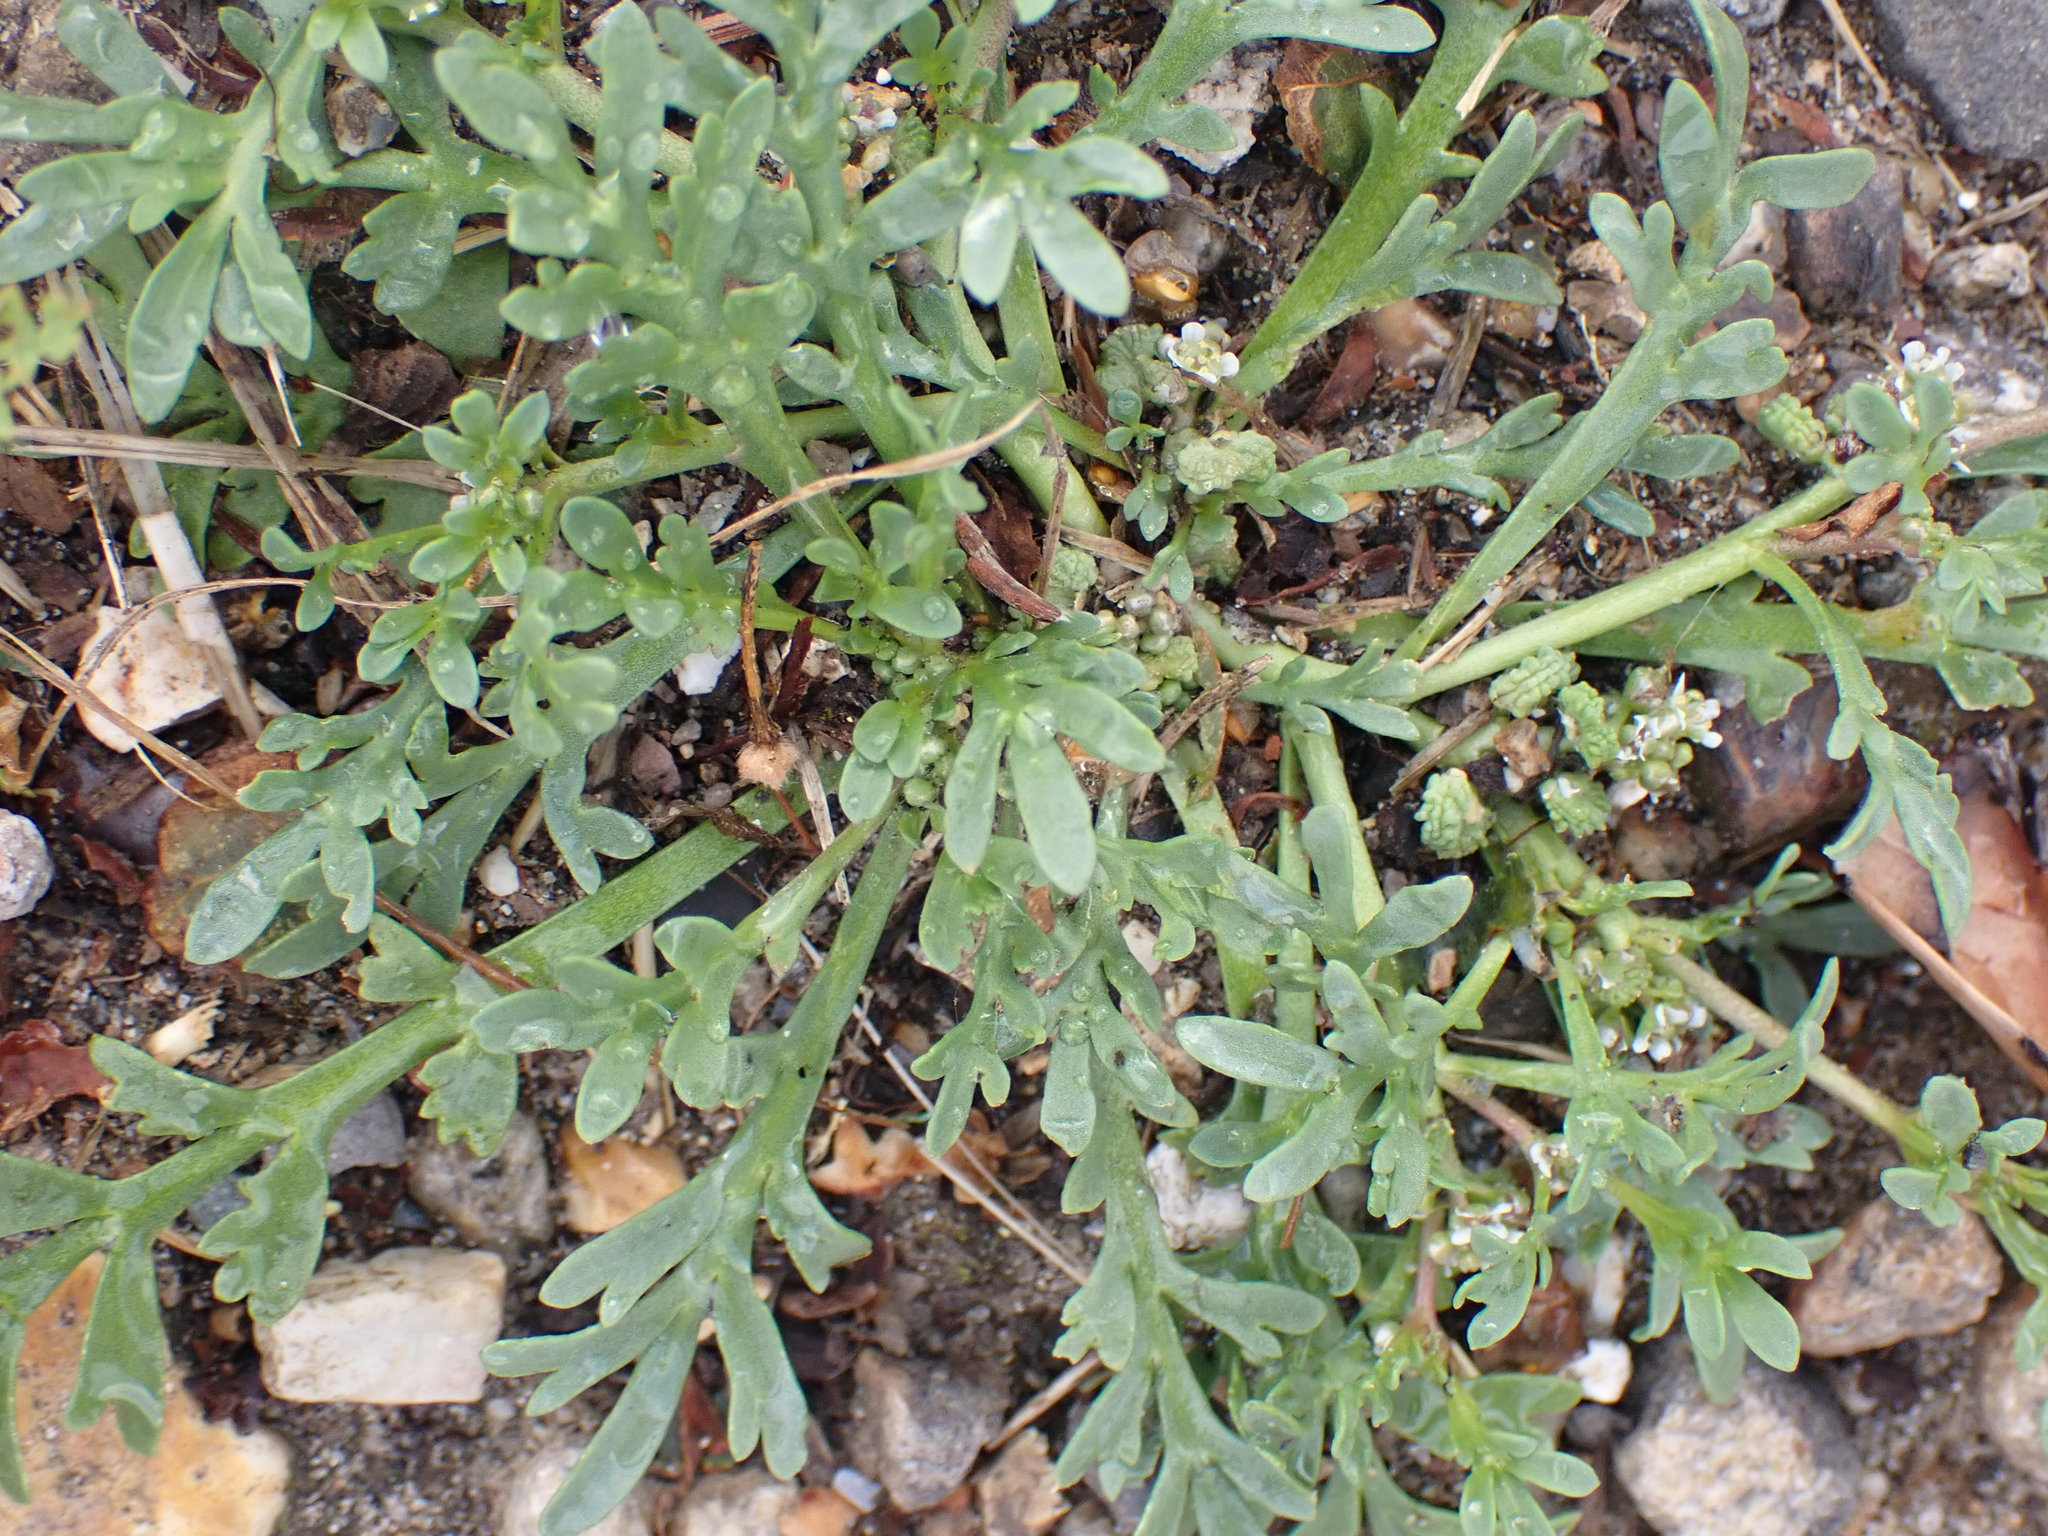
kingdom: Plantae
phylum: Tracheophyta
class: Magnoliopsida
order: Brassicales
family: Brassicaceae
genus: Lepidium
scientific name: Lepidium coronopus
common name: Greater swinecress
